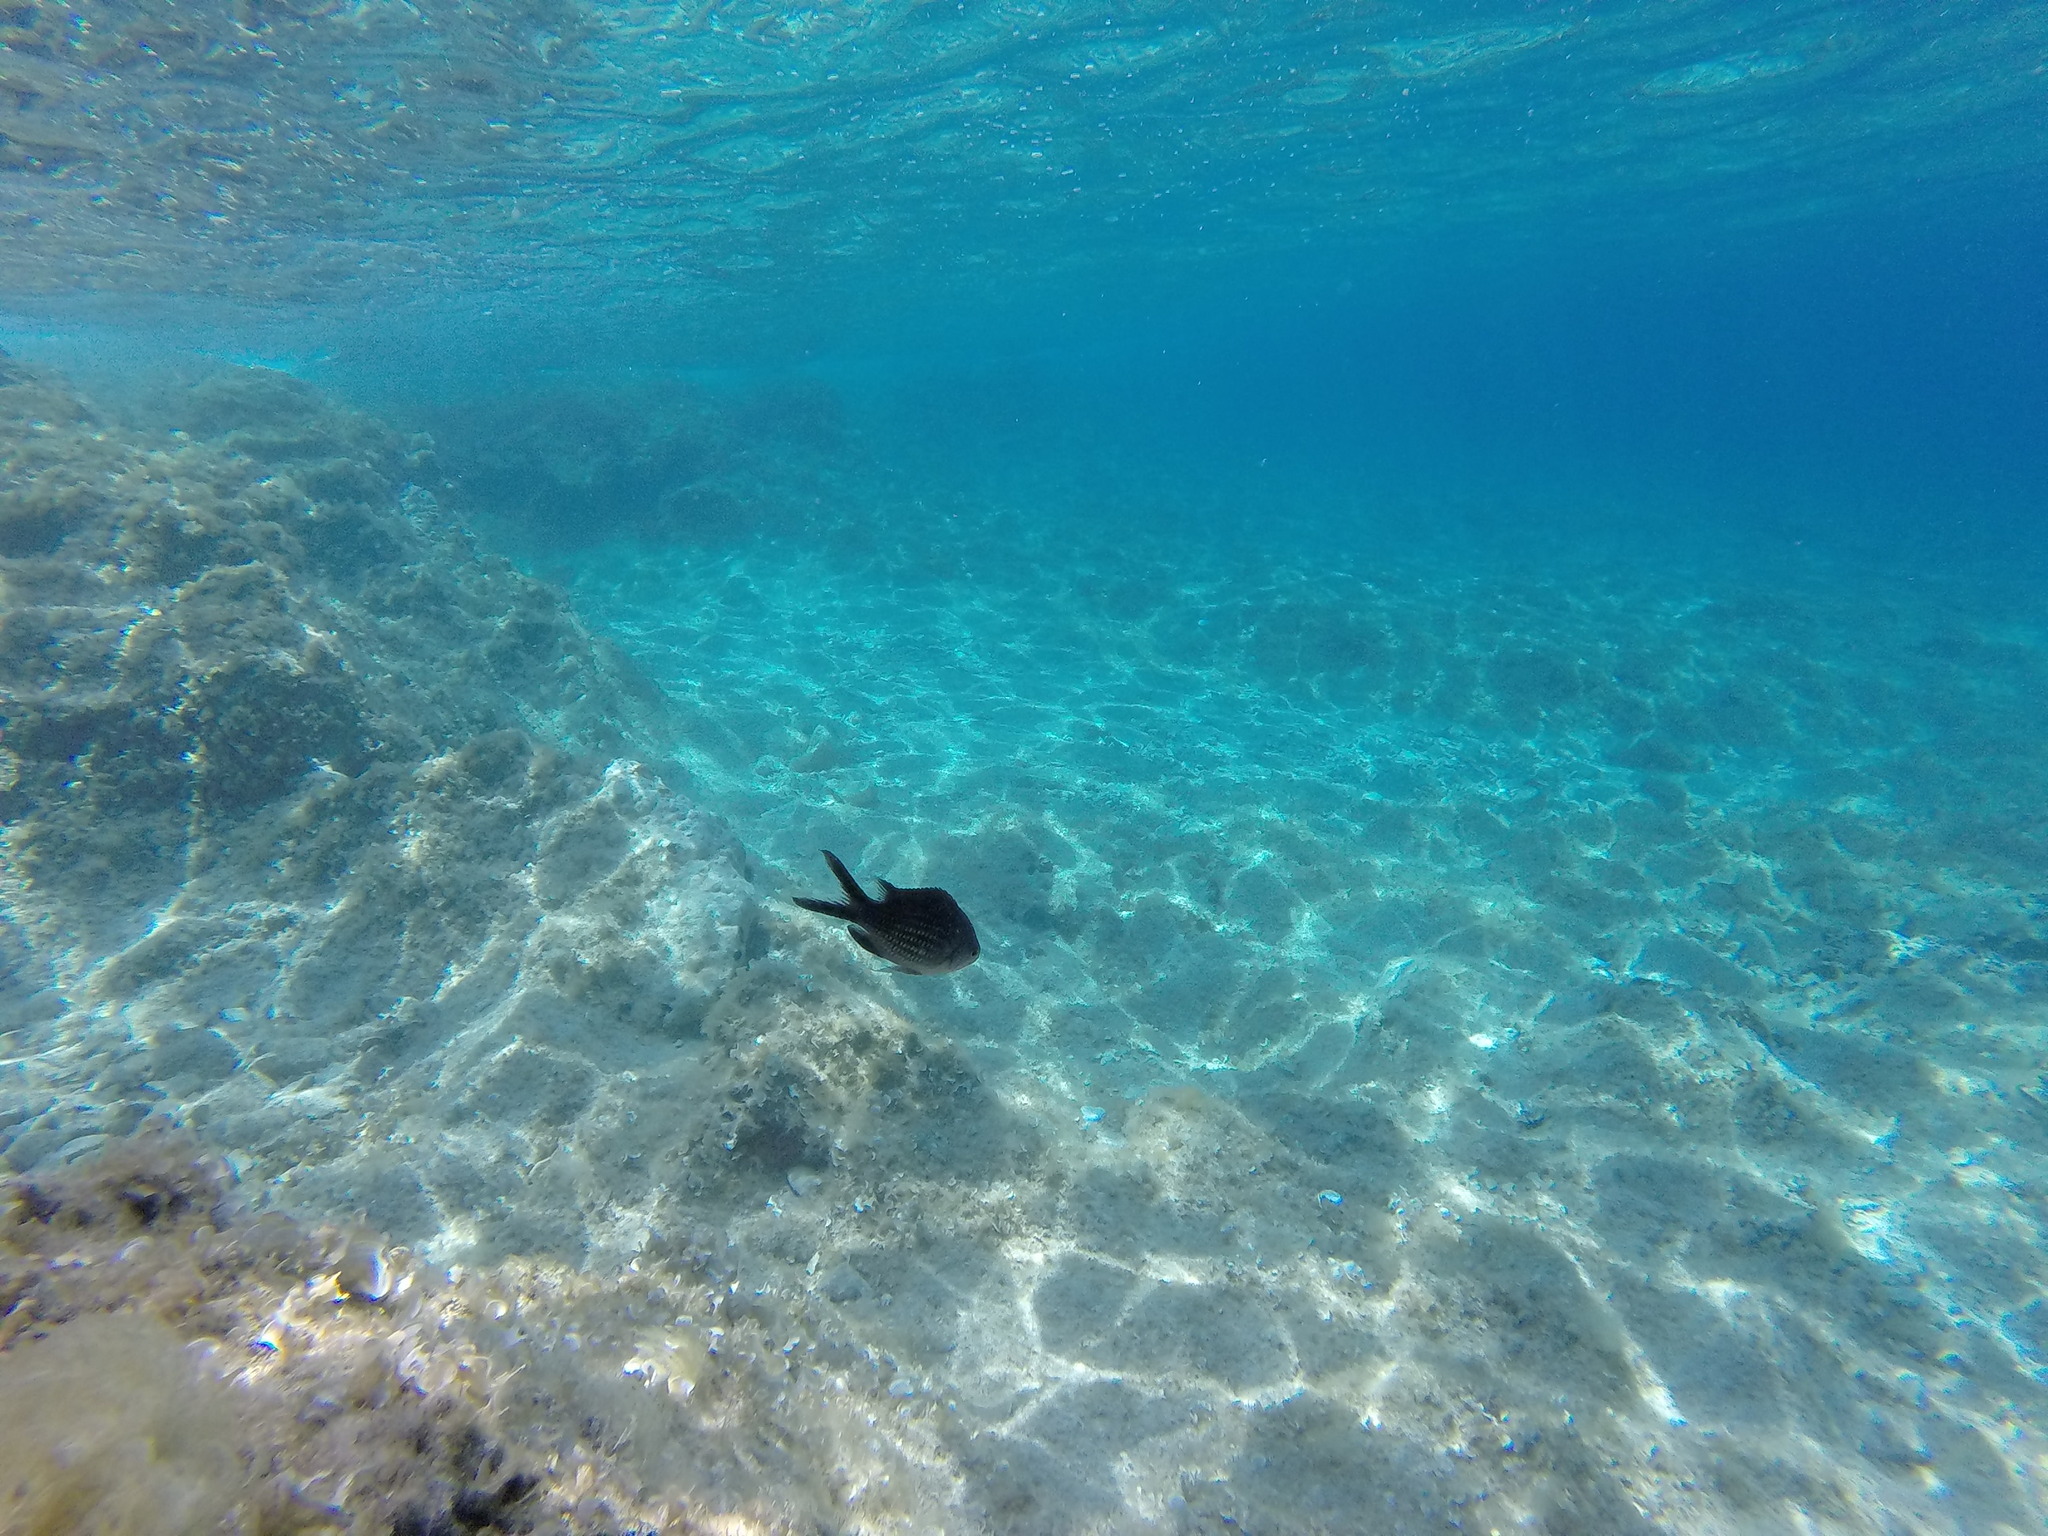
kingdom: Animalia
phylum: Chordata
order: Perciformes
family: Pomacentridae
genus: Chromis
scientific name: Chromis chromis
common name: Damselfish
